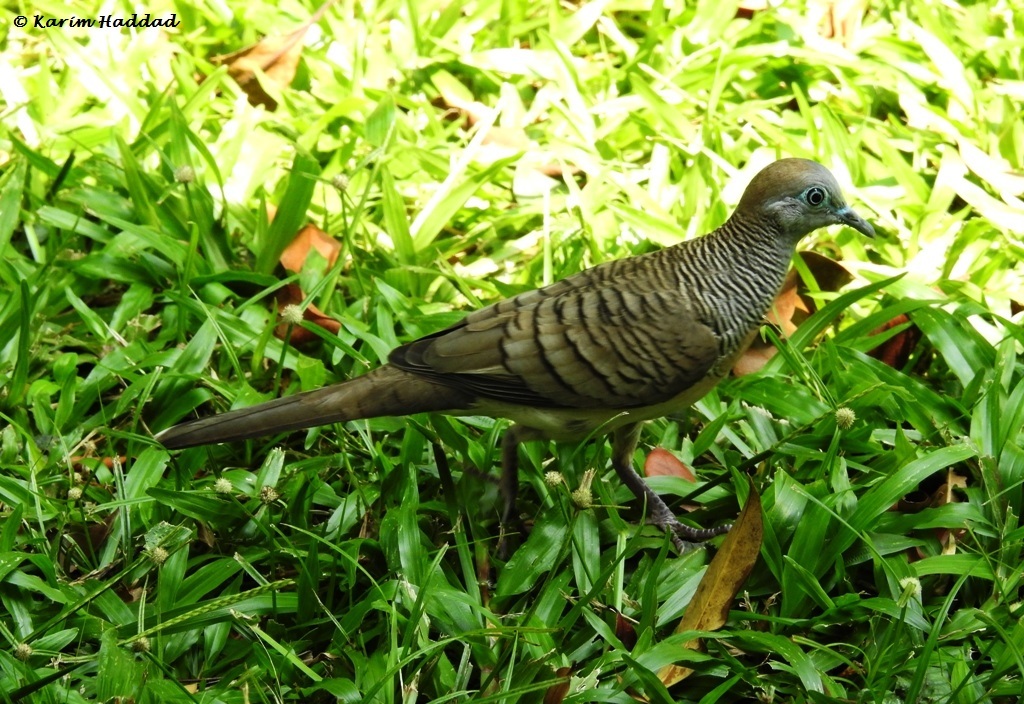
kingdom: Animalia
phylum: Chordata
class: Aves
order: Columbiformes
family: Columbidae
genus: Geopelia
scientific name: Geopelia striata
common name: Zebra dove
